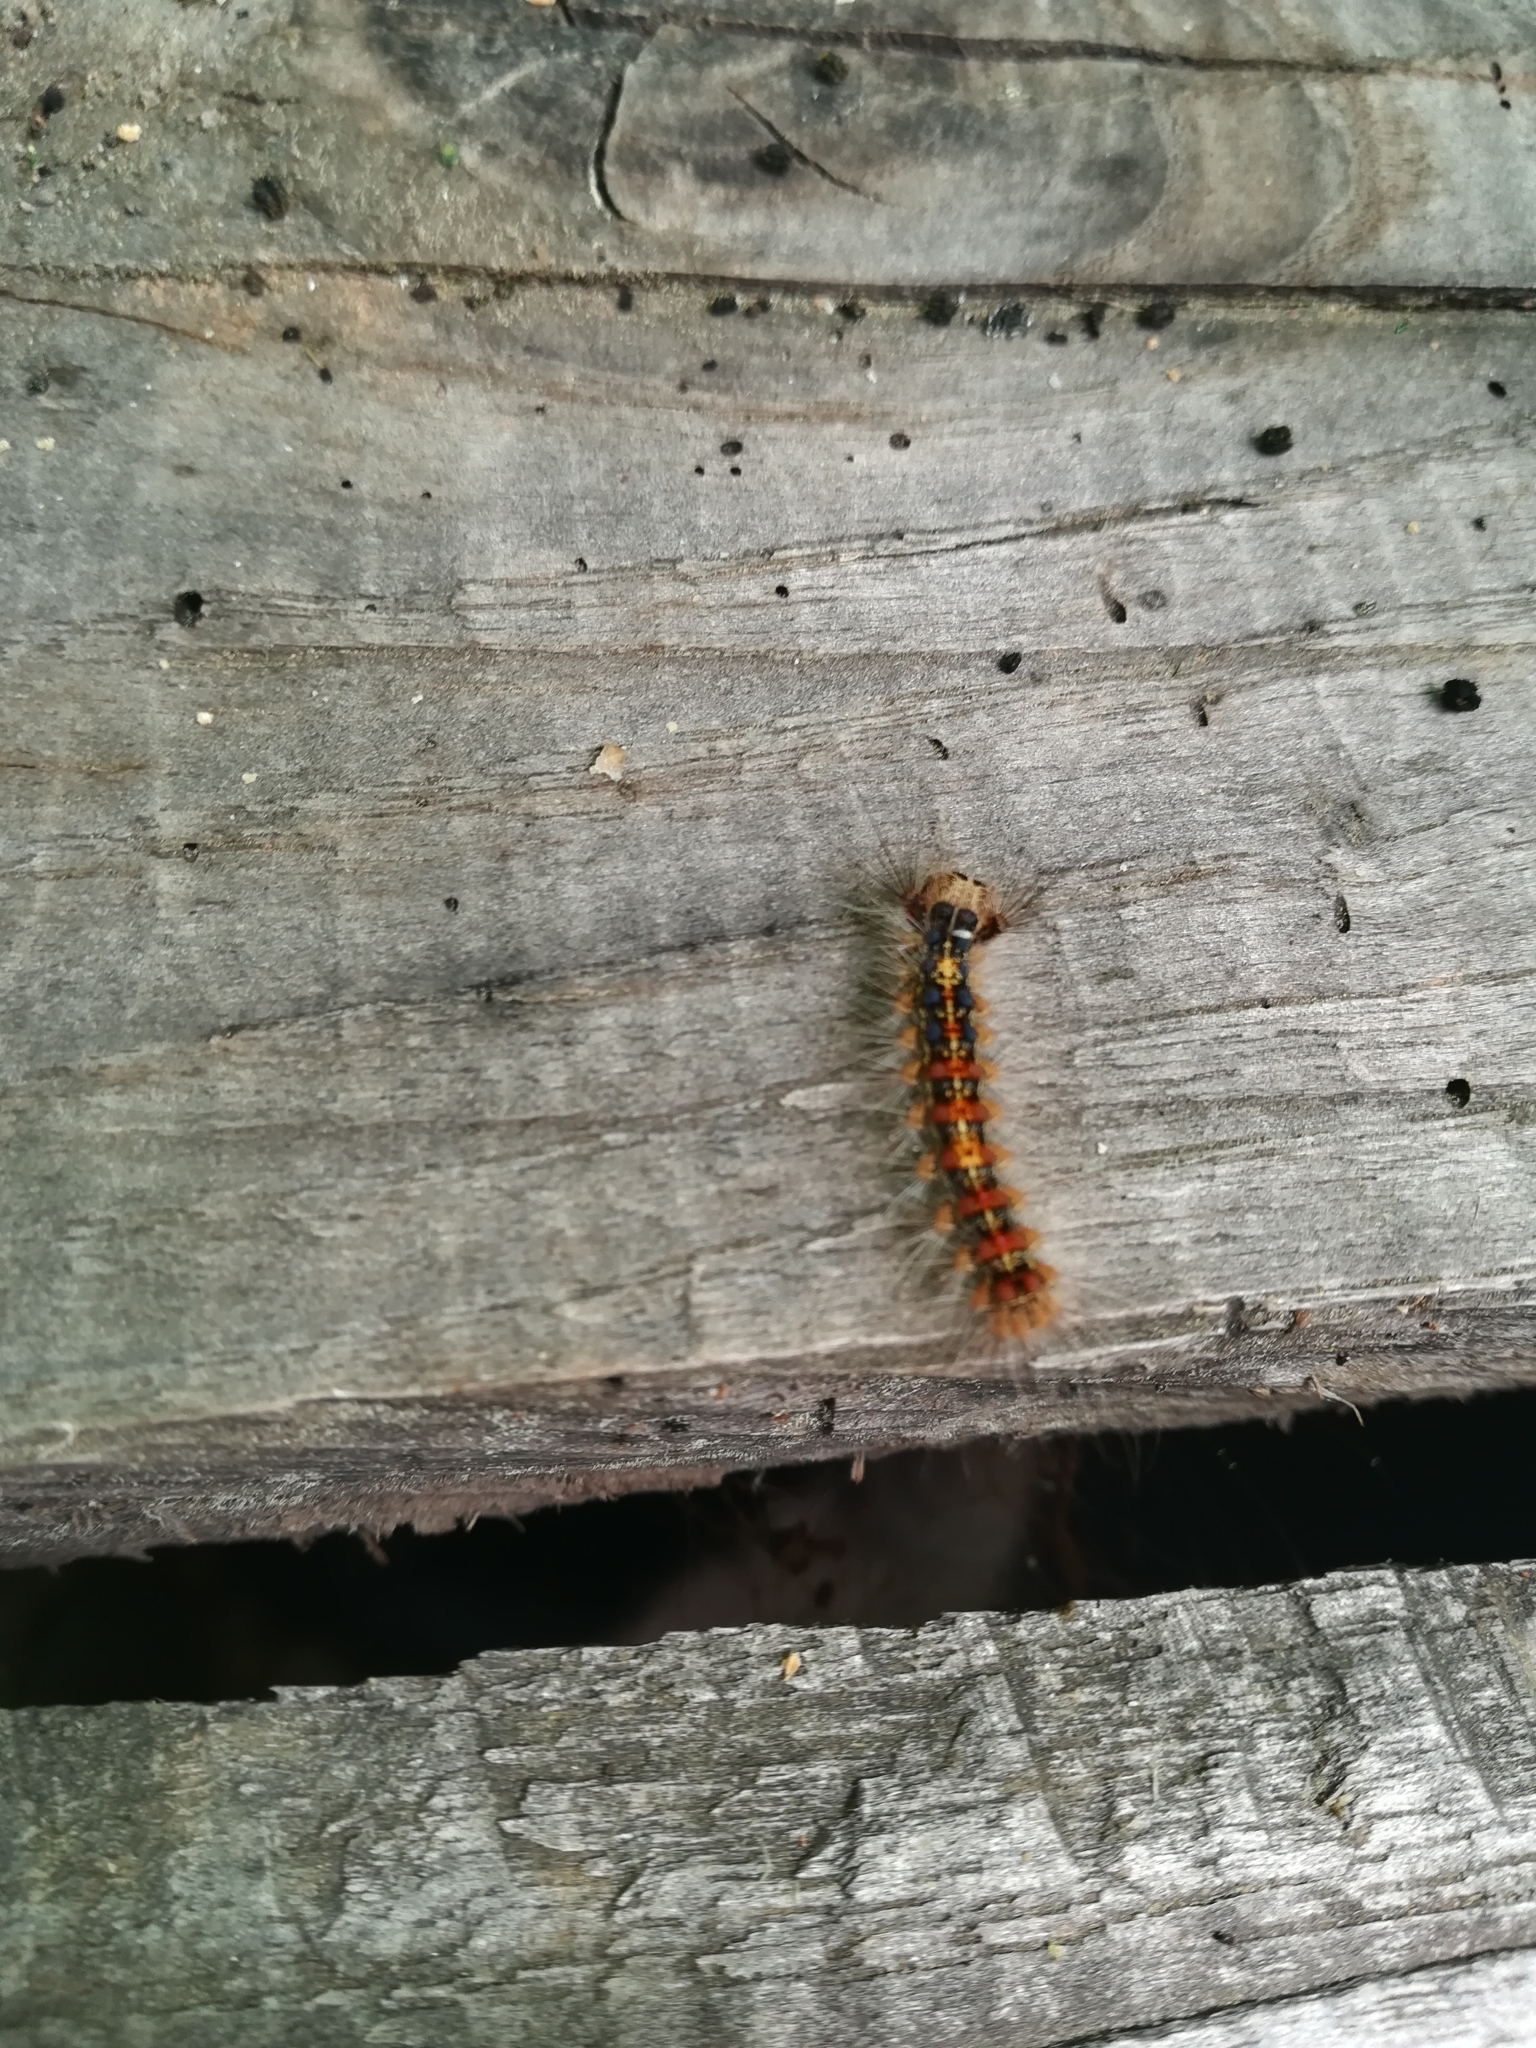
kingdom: Animalia
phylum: Arthropoda
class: Insecta
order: Lepidoptera
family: Erebidae
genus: Lymantria
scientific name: Lymantria dispar
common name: Gypsy moth
